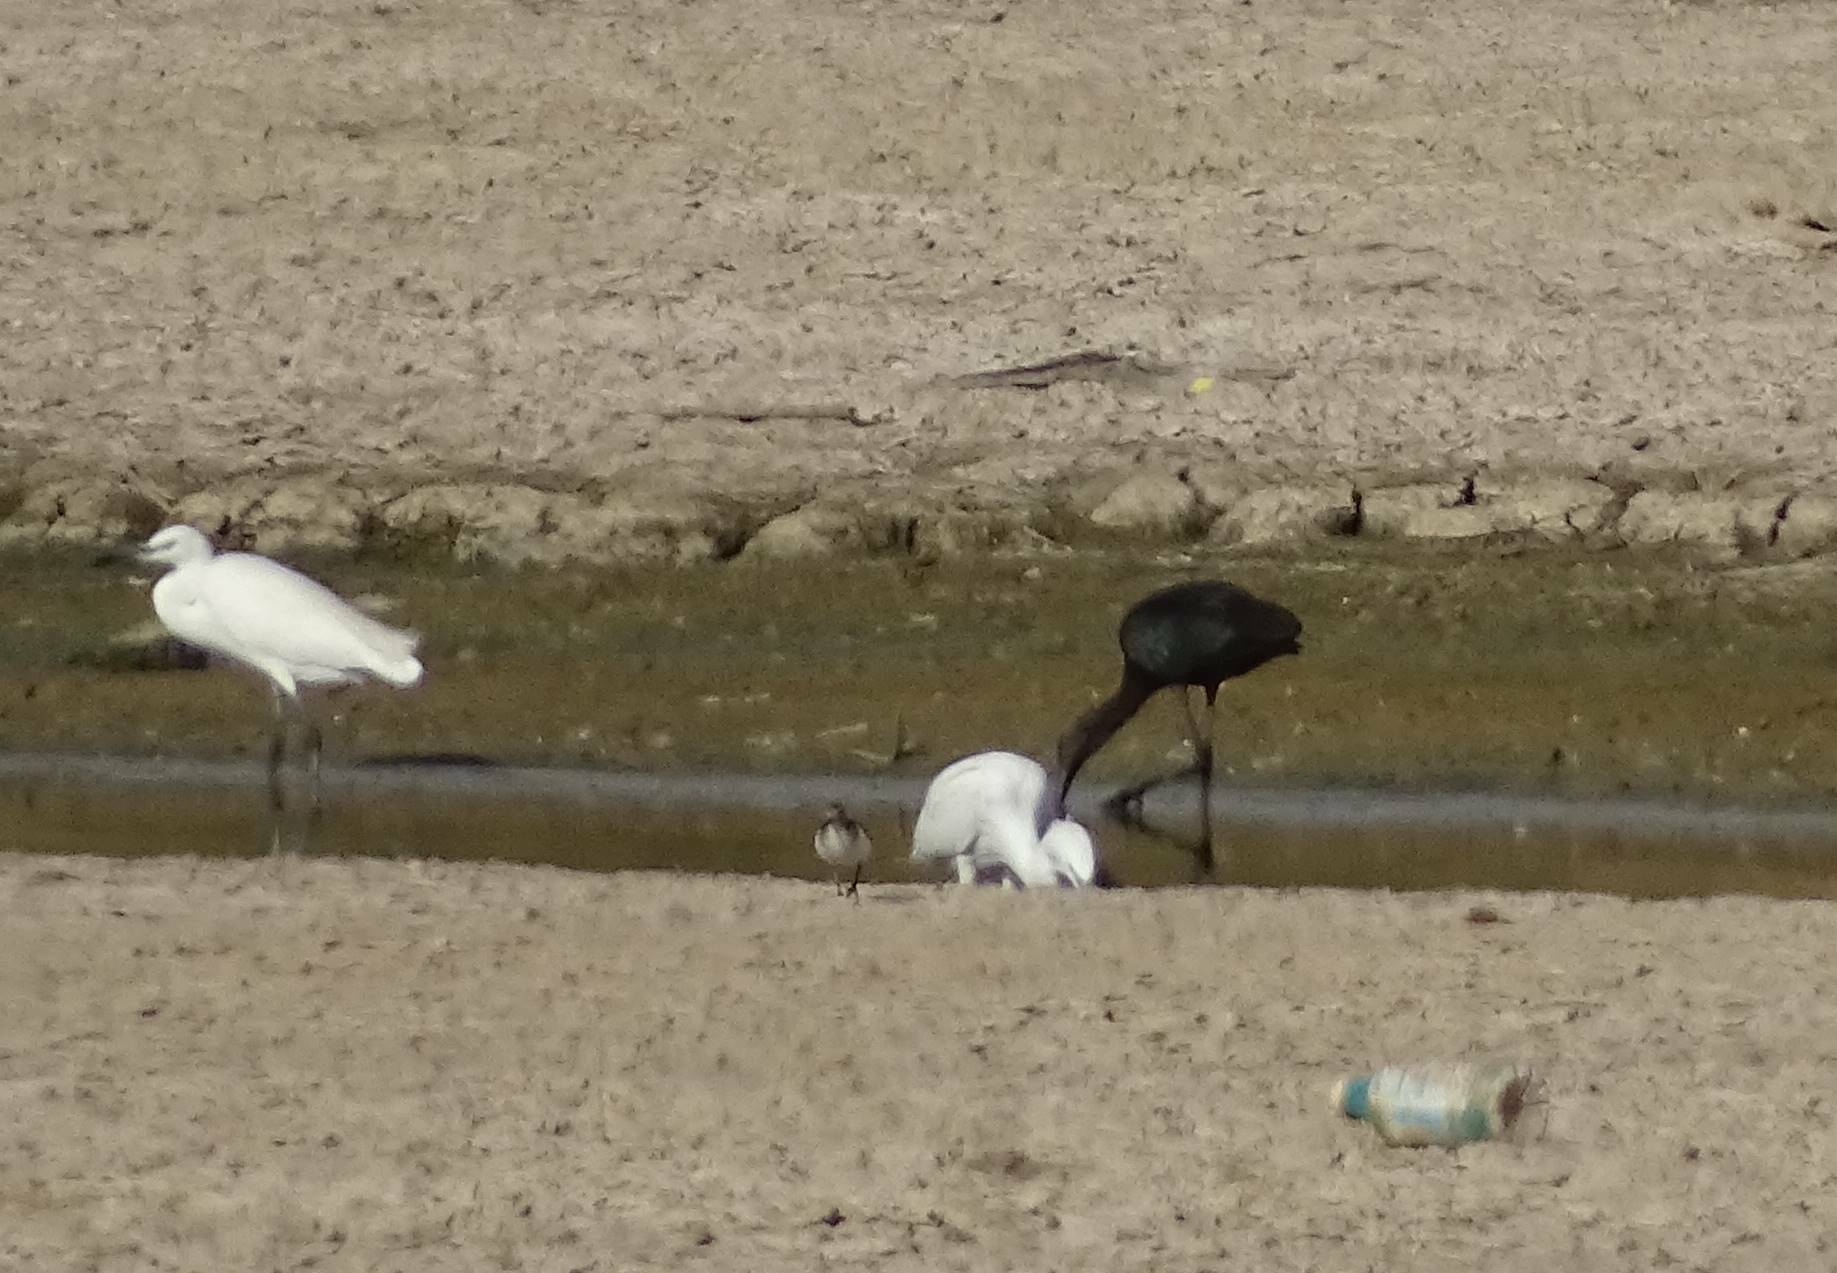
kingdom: Animalia
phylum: Chordata
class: Aves
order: Pelecaniformes
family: Ardeidae
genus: Egretta
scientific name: Egretta garzetta
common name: Little egret
